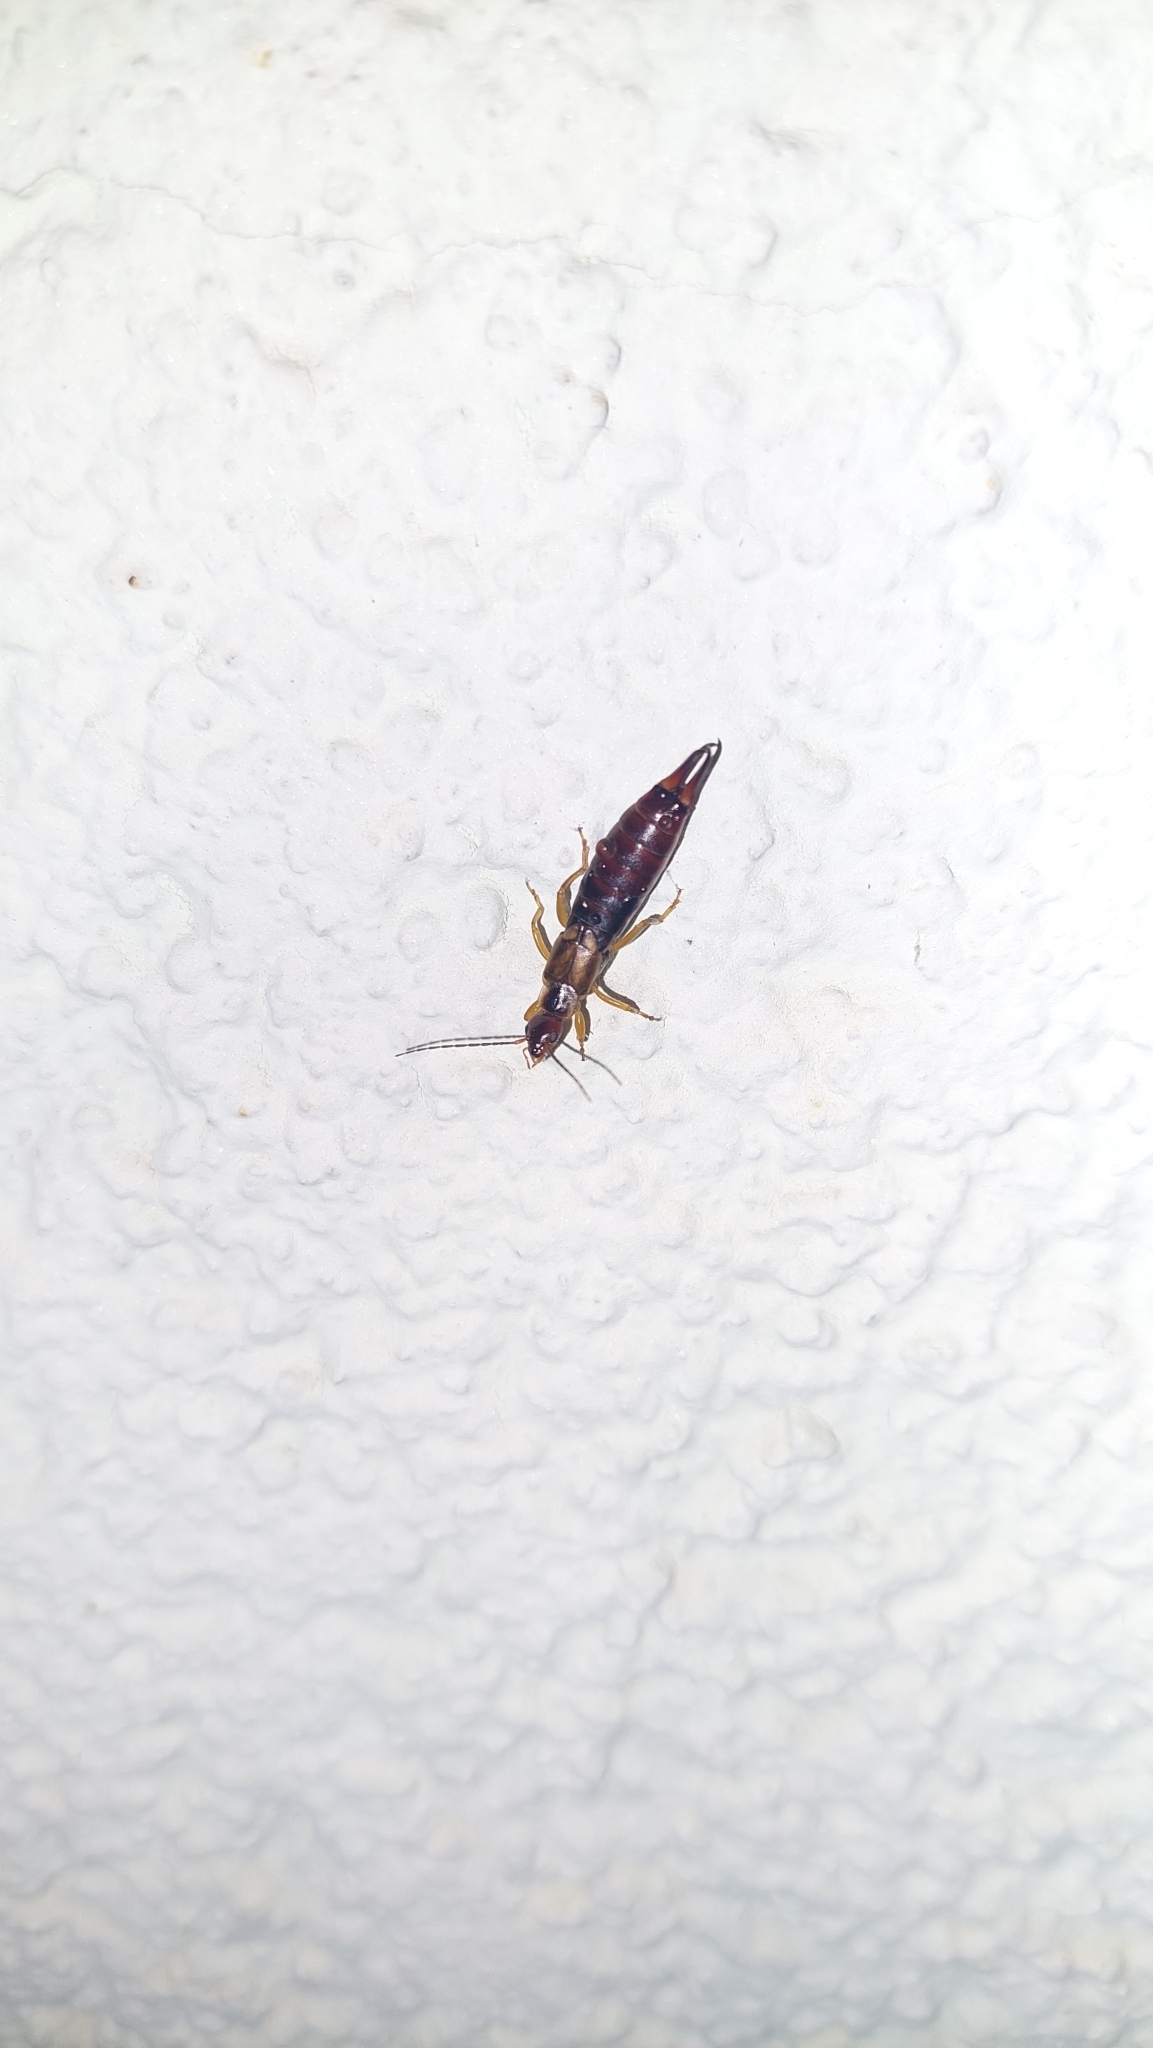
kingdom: Animalia
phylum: Arthropoda
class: Insecta
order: Dermaptera
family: Forficulidae
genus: Forficula
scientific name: Forficula
